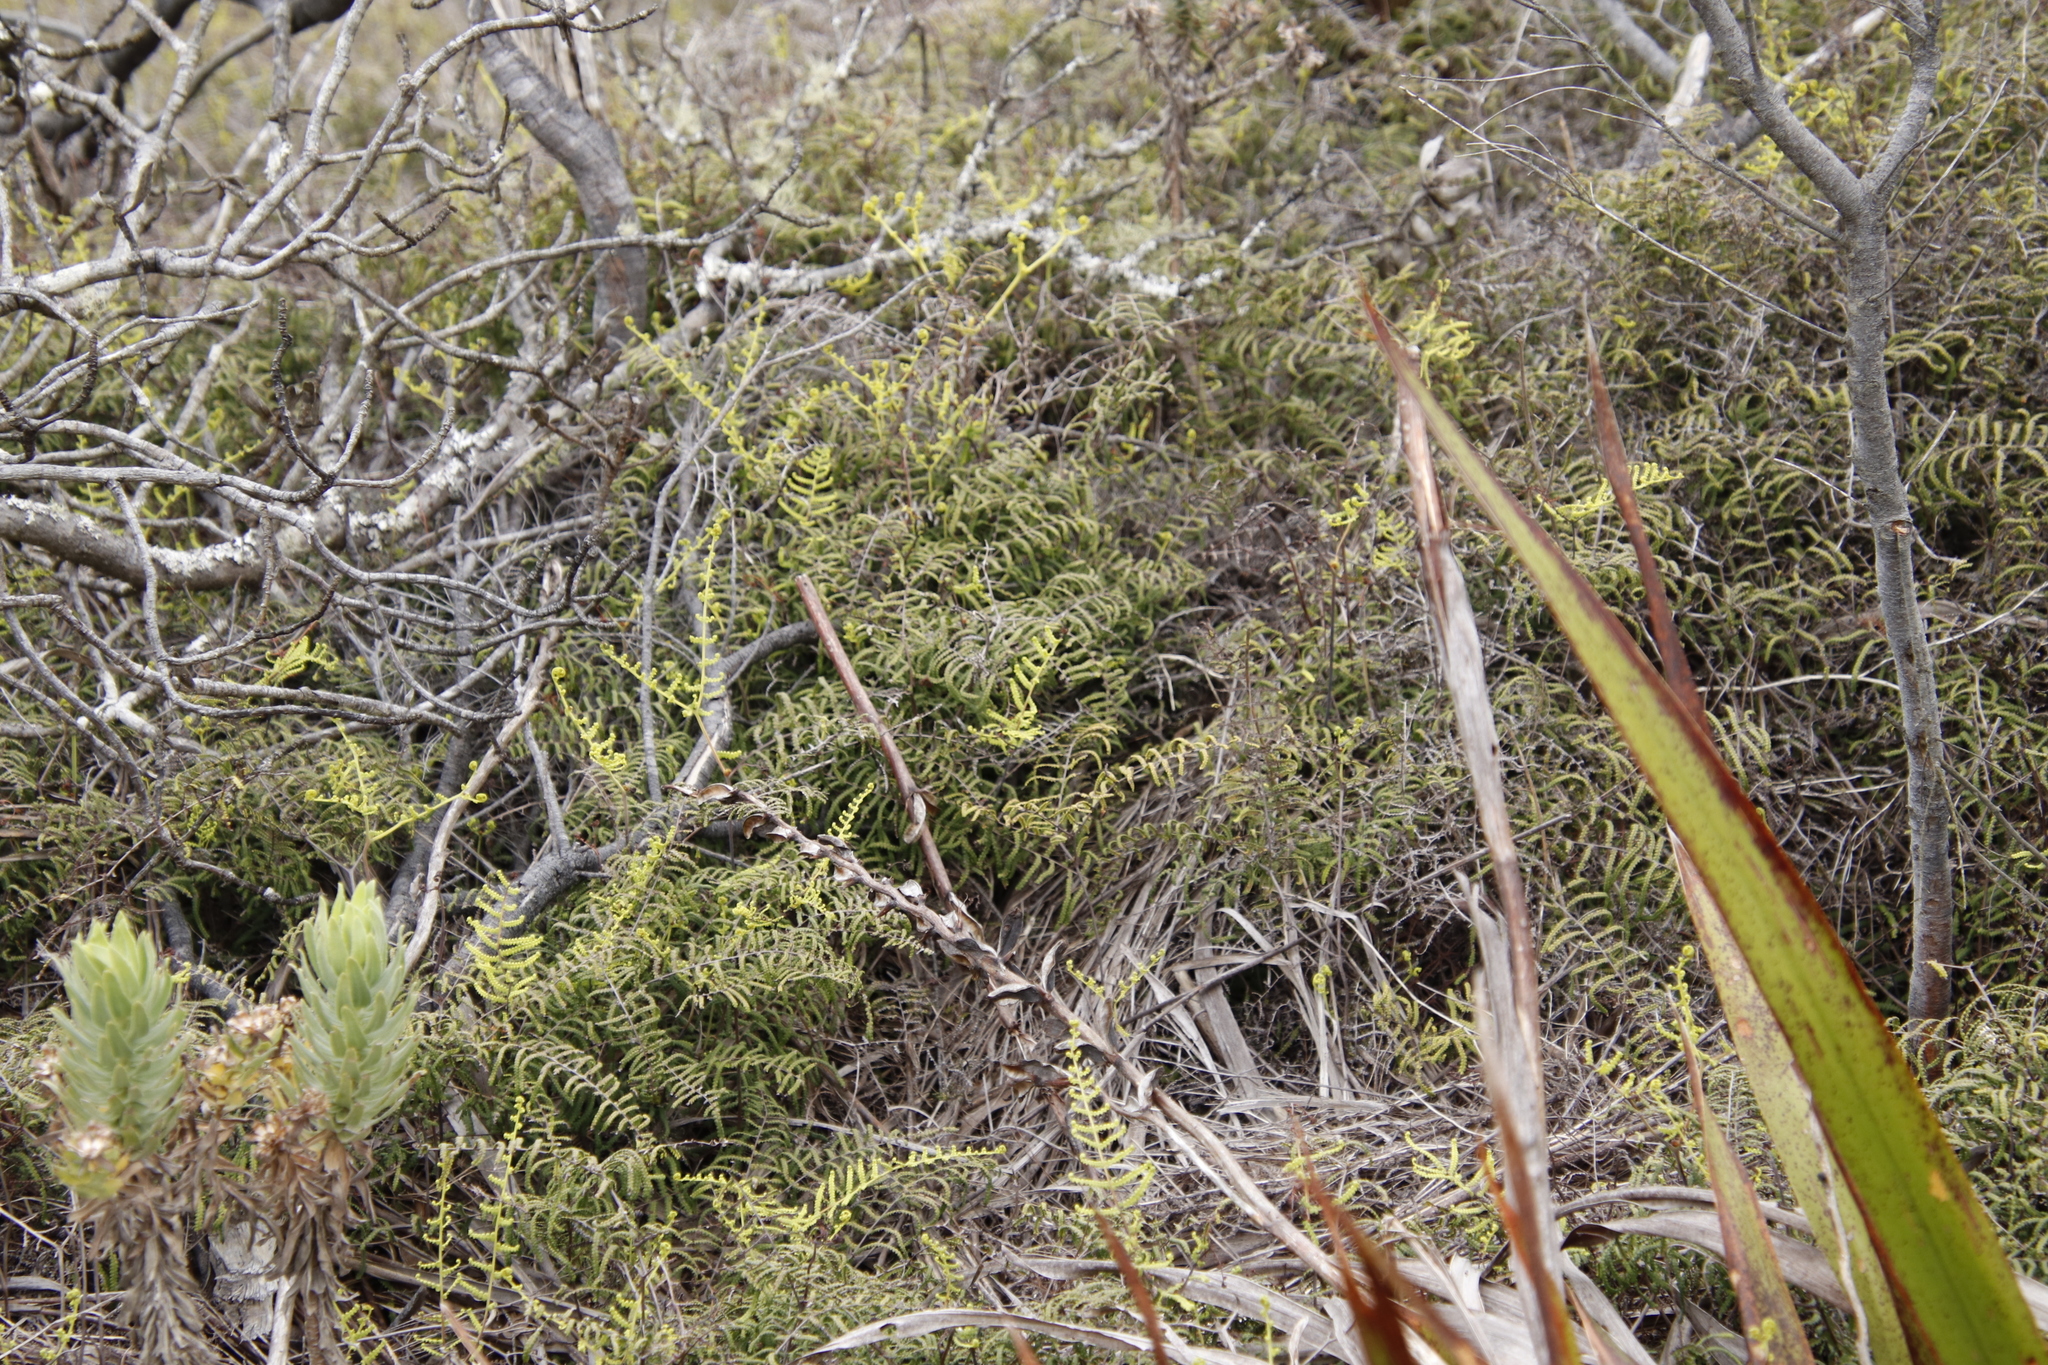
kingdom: Plantae
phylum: Tracheophyta
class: Polypodiopsida
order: Gleicheniales
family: Gleicheniaceae
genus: Gleichenia
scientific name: Gleichenia polypodioides
